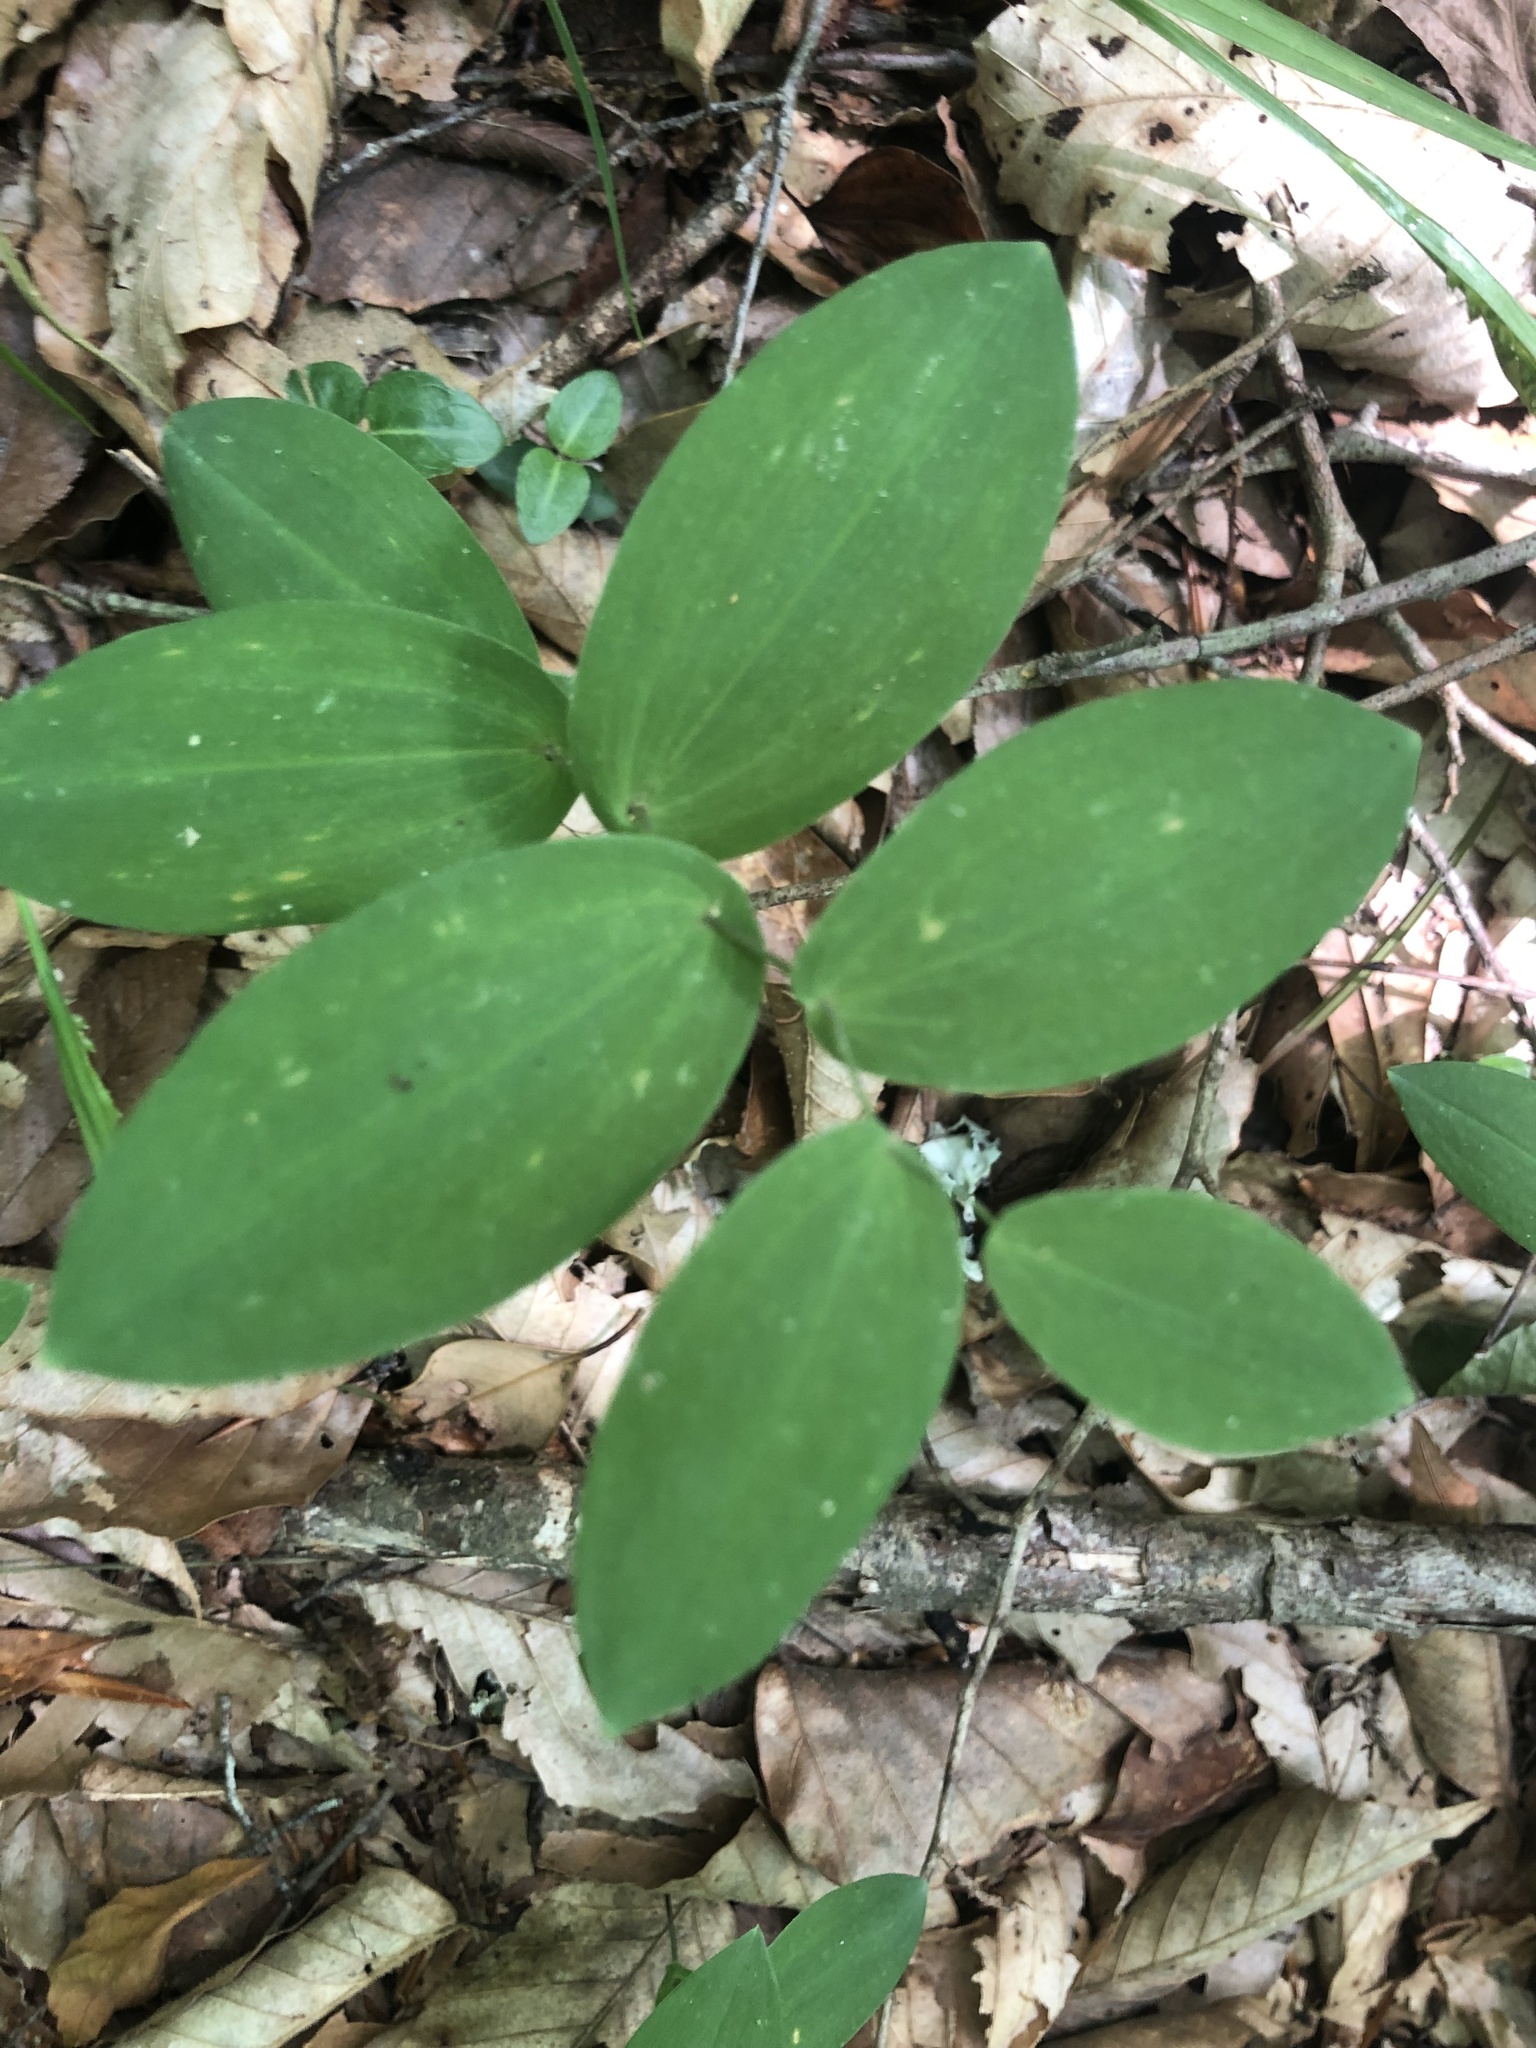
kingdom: Plantae
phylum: Tracheophyta
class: Liliopsida
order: Liliales
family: Colchicaceae
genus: Uvularia
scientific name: Uvularia perfoliata
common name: Perfoliate bellwort
